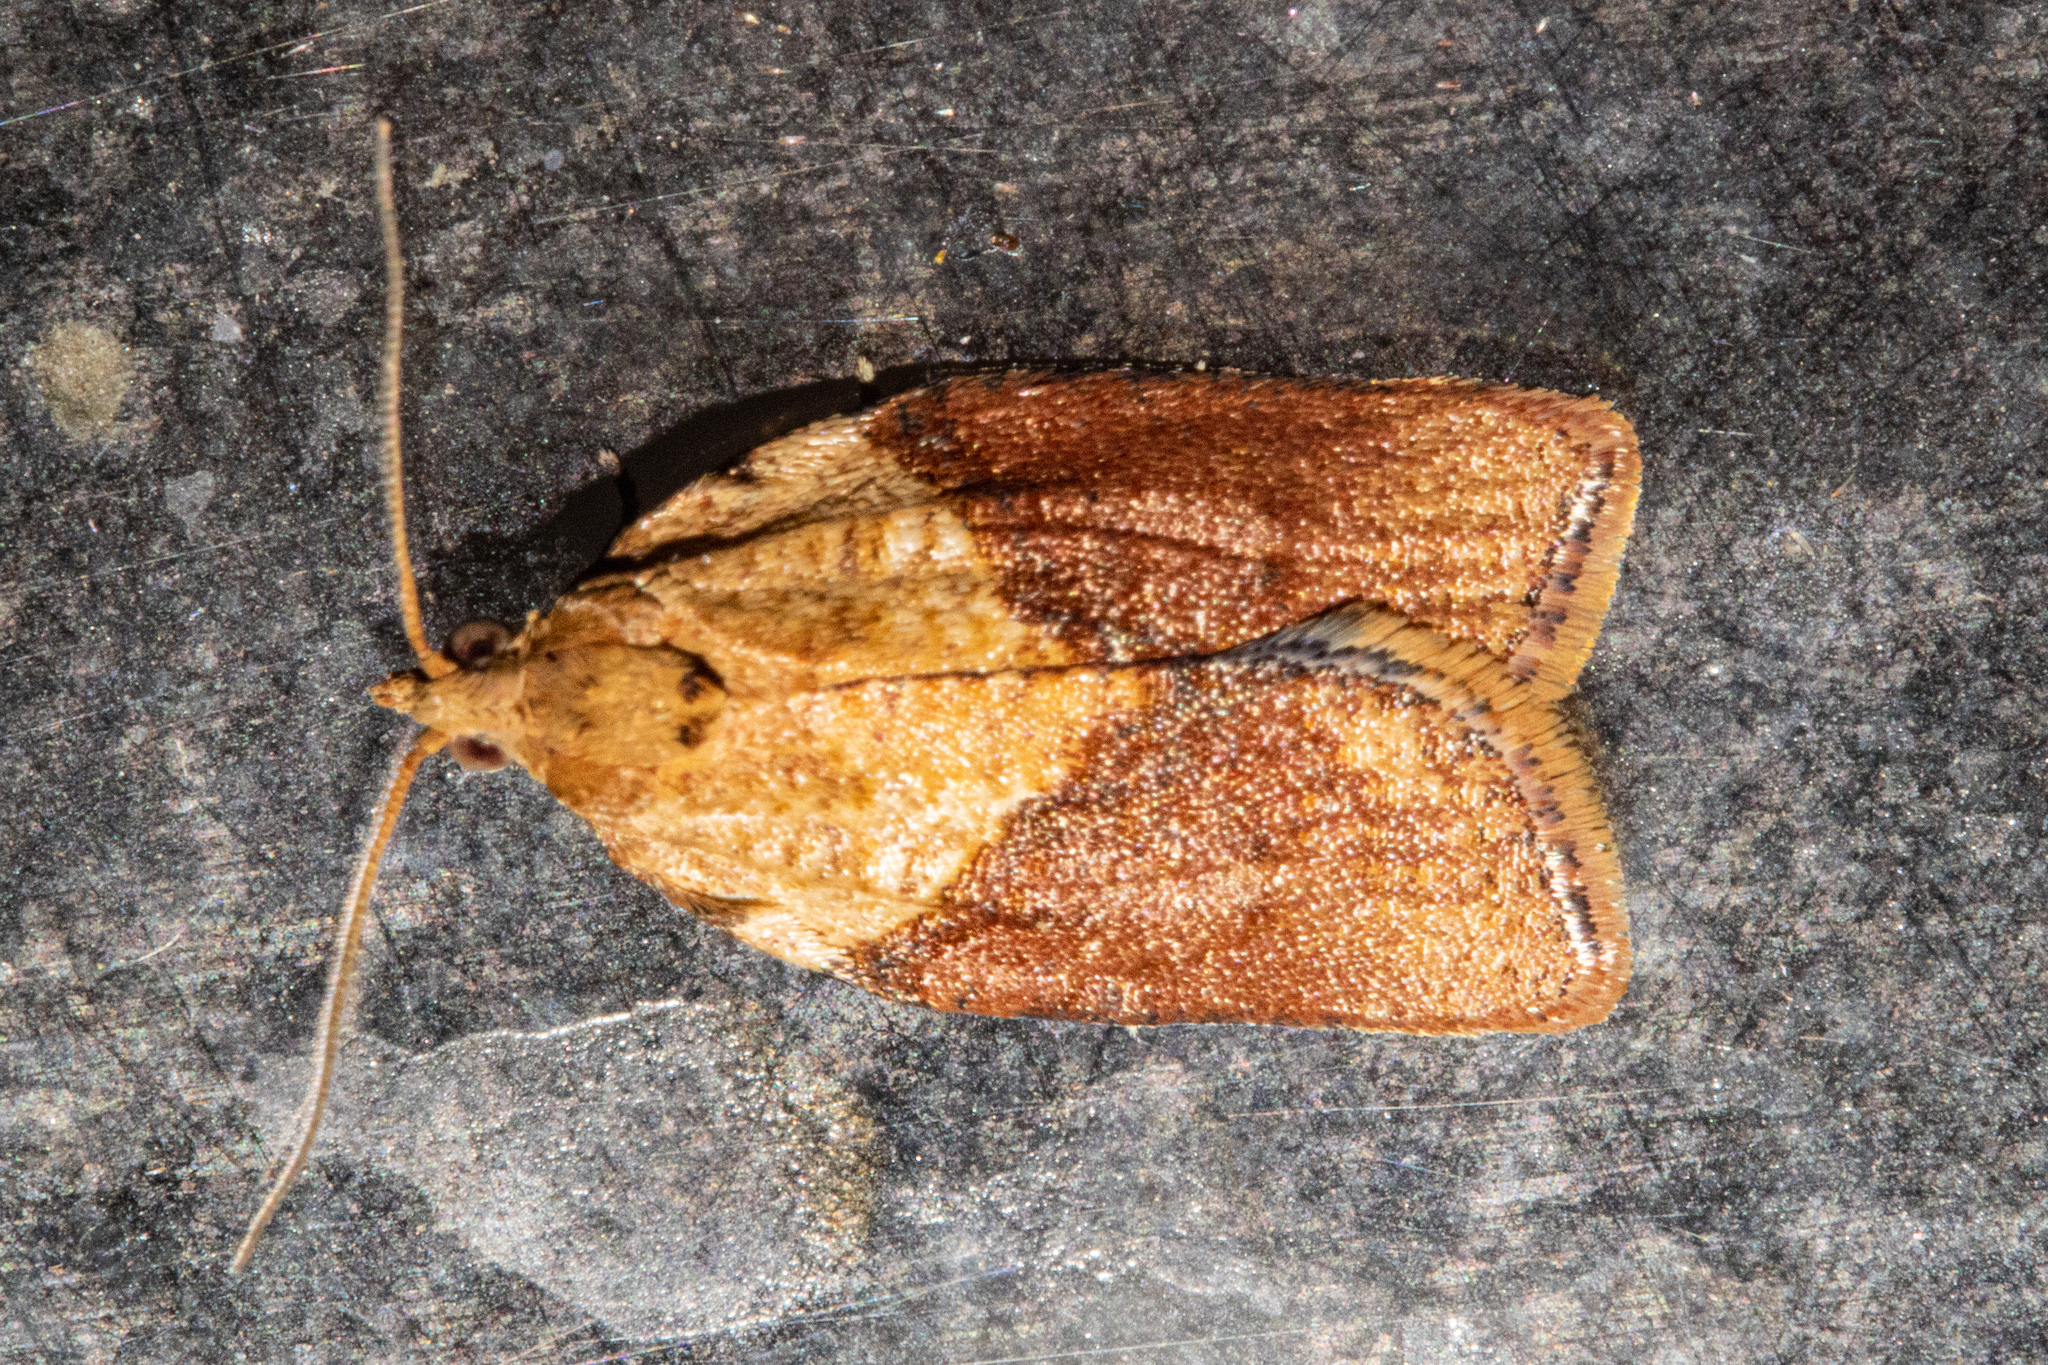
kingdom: Animalia
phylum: Arthropoda
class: Insecta
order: Lepidoptera
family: Tortricidae
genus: Epiphyas
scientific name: Epiphyas postvittana
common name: Light brown apple moth
